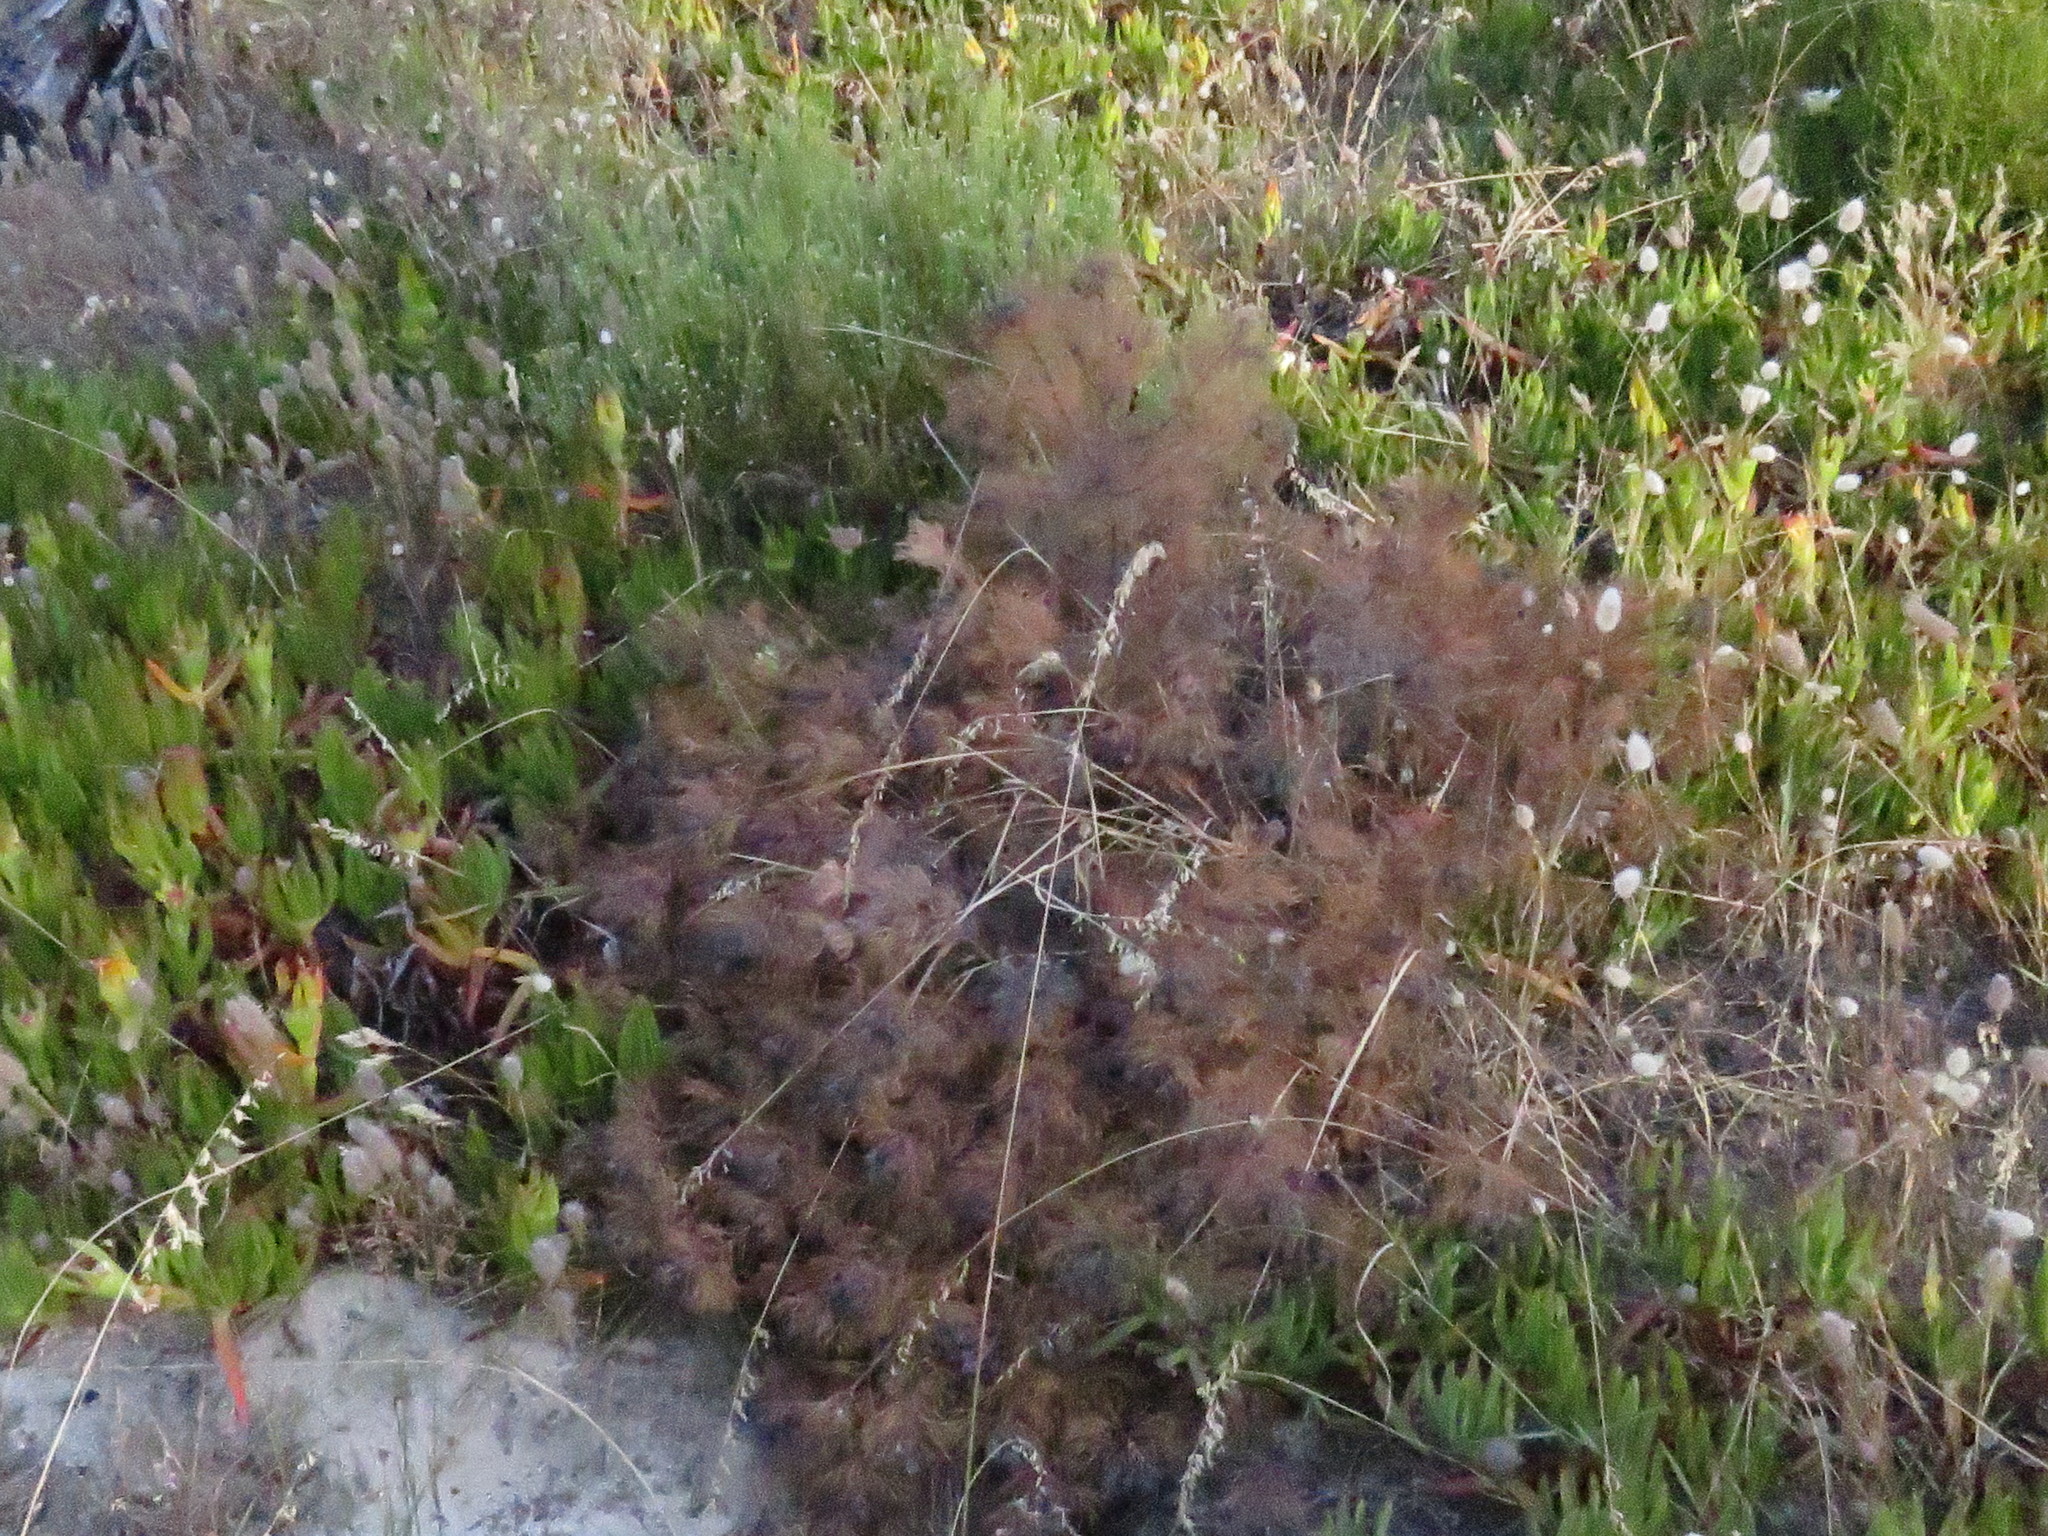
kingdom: Plantae
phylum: Tracheophyta
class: Magnoliopsida
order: Proteales
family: Proteaceae
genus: Serruria
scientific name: Serruria fasciflora
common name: Common pin spiderhead
